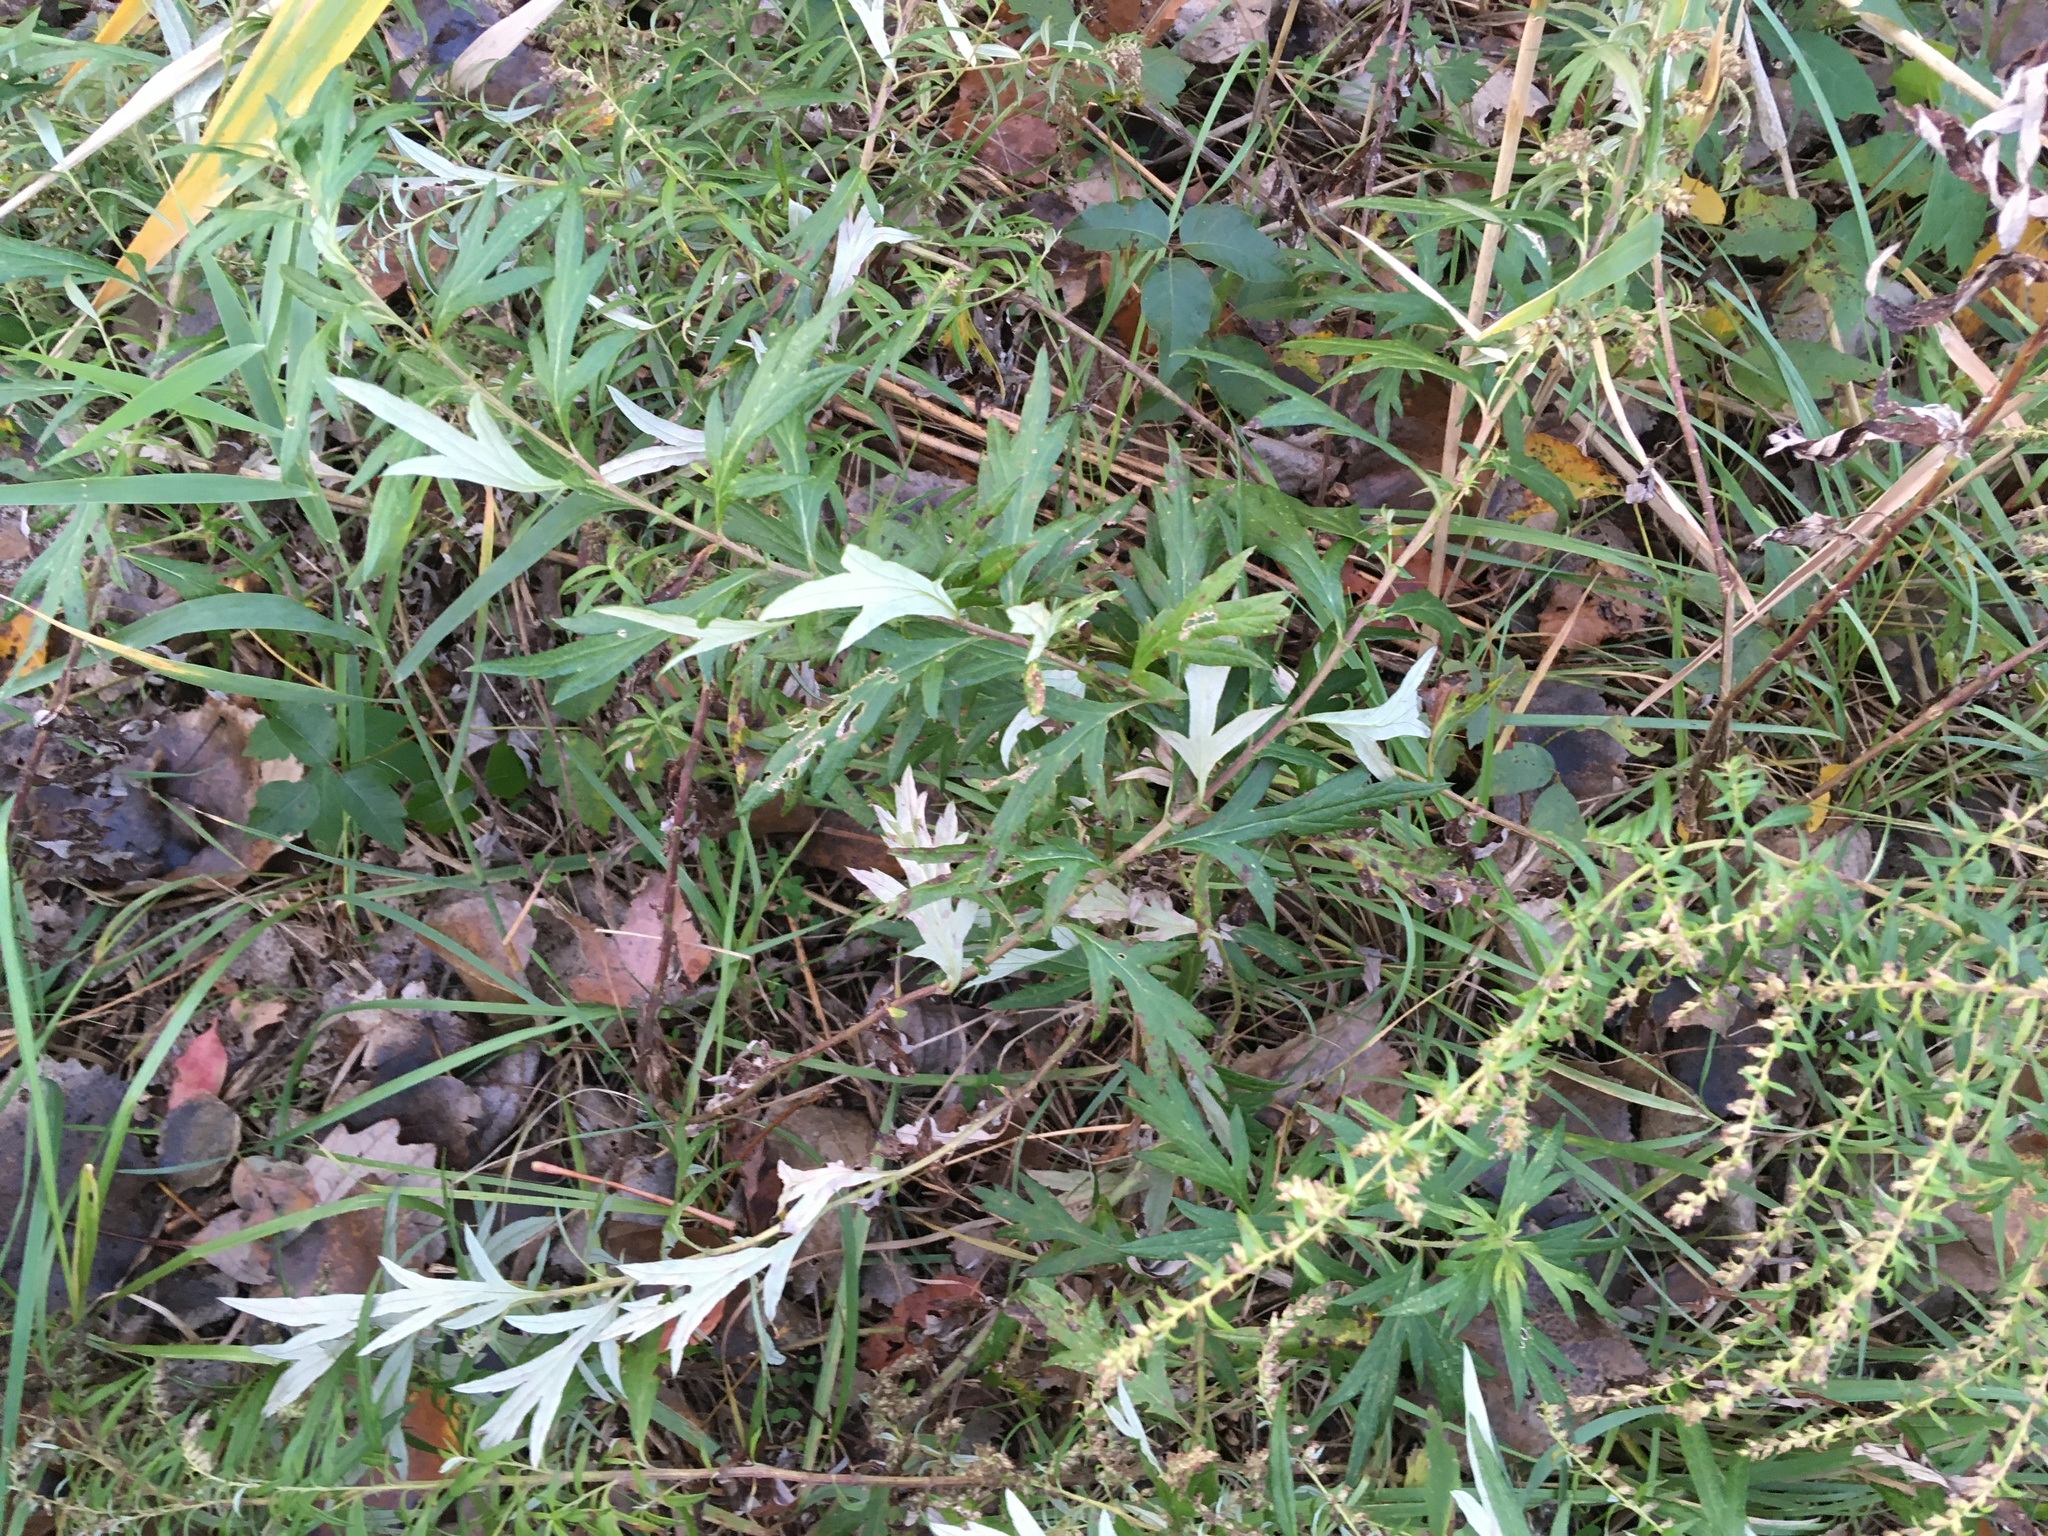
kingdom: Plantae
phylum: Tracheophyta
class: Magnoliopsida
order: Asterales
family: Asteraceae
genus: Artemisia
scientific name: Artemisia vulgaris
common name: Mugwort
